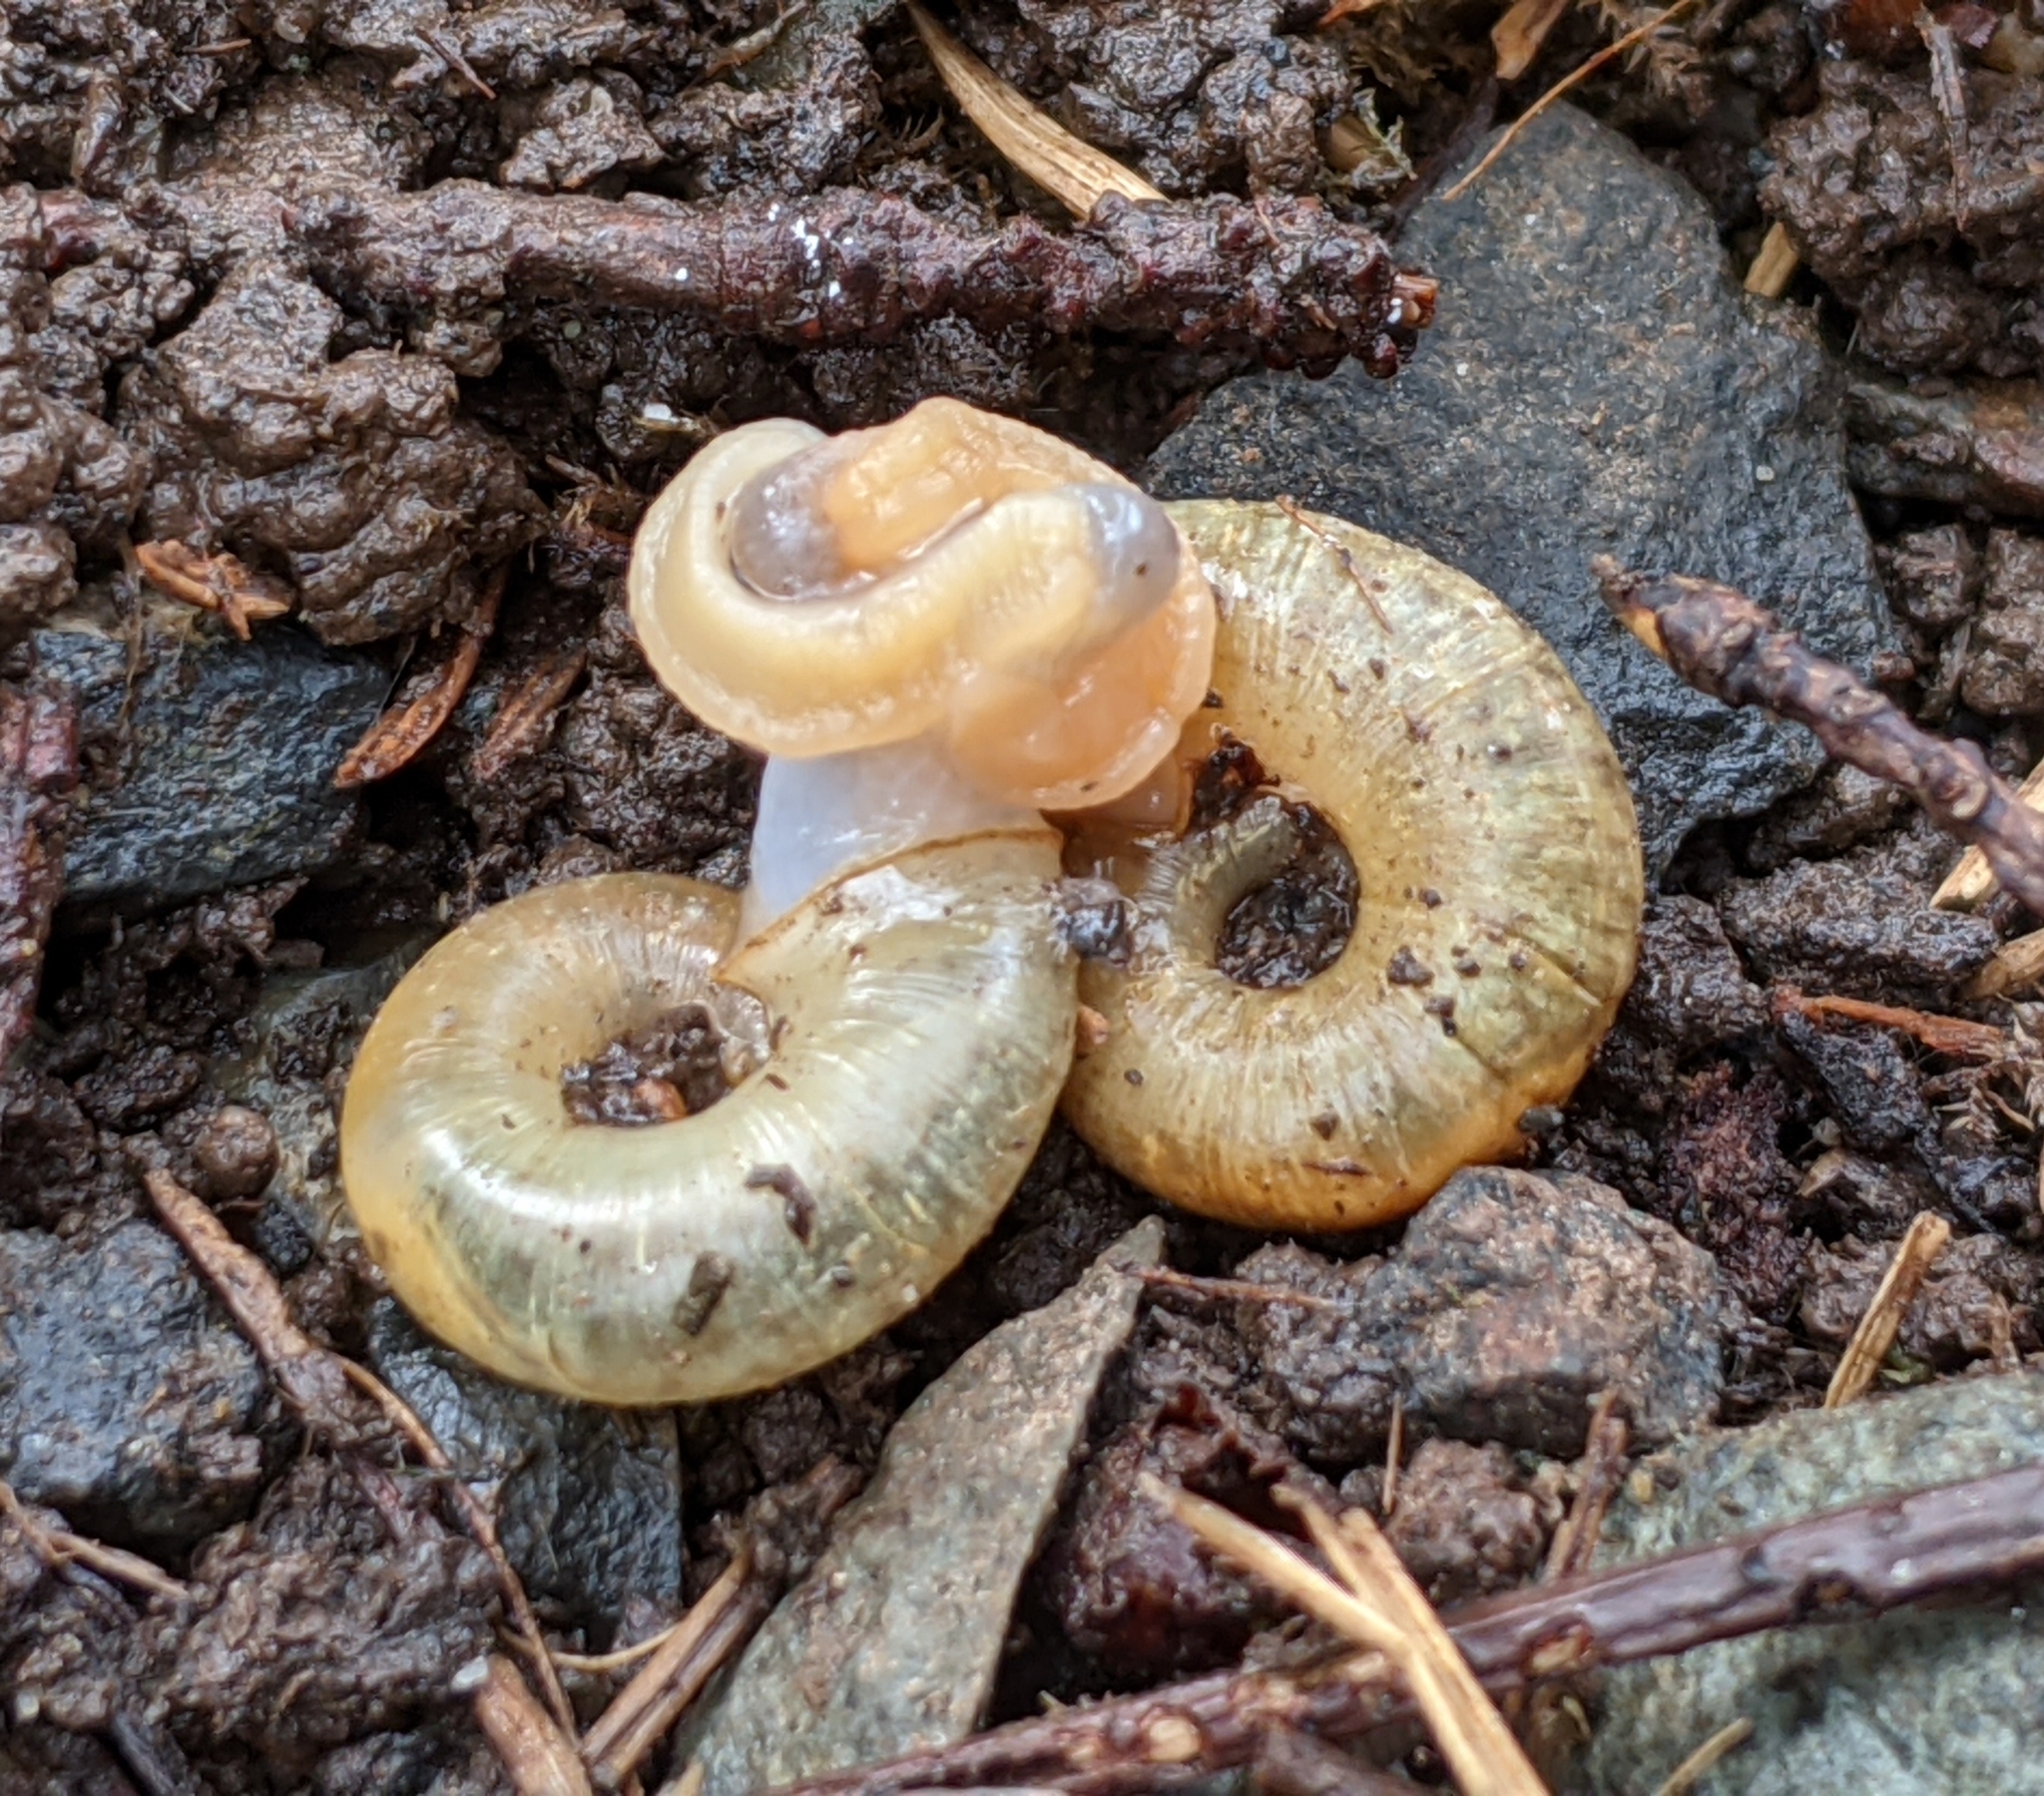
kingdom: Animalia
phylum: Mollusca
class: Gastropoda
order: Stylommatophora
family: Haplotrematidae
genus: Haplotrema
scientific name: Haplotrema vancouverense
